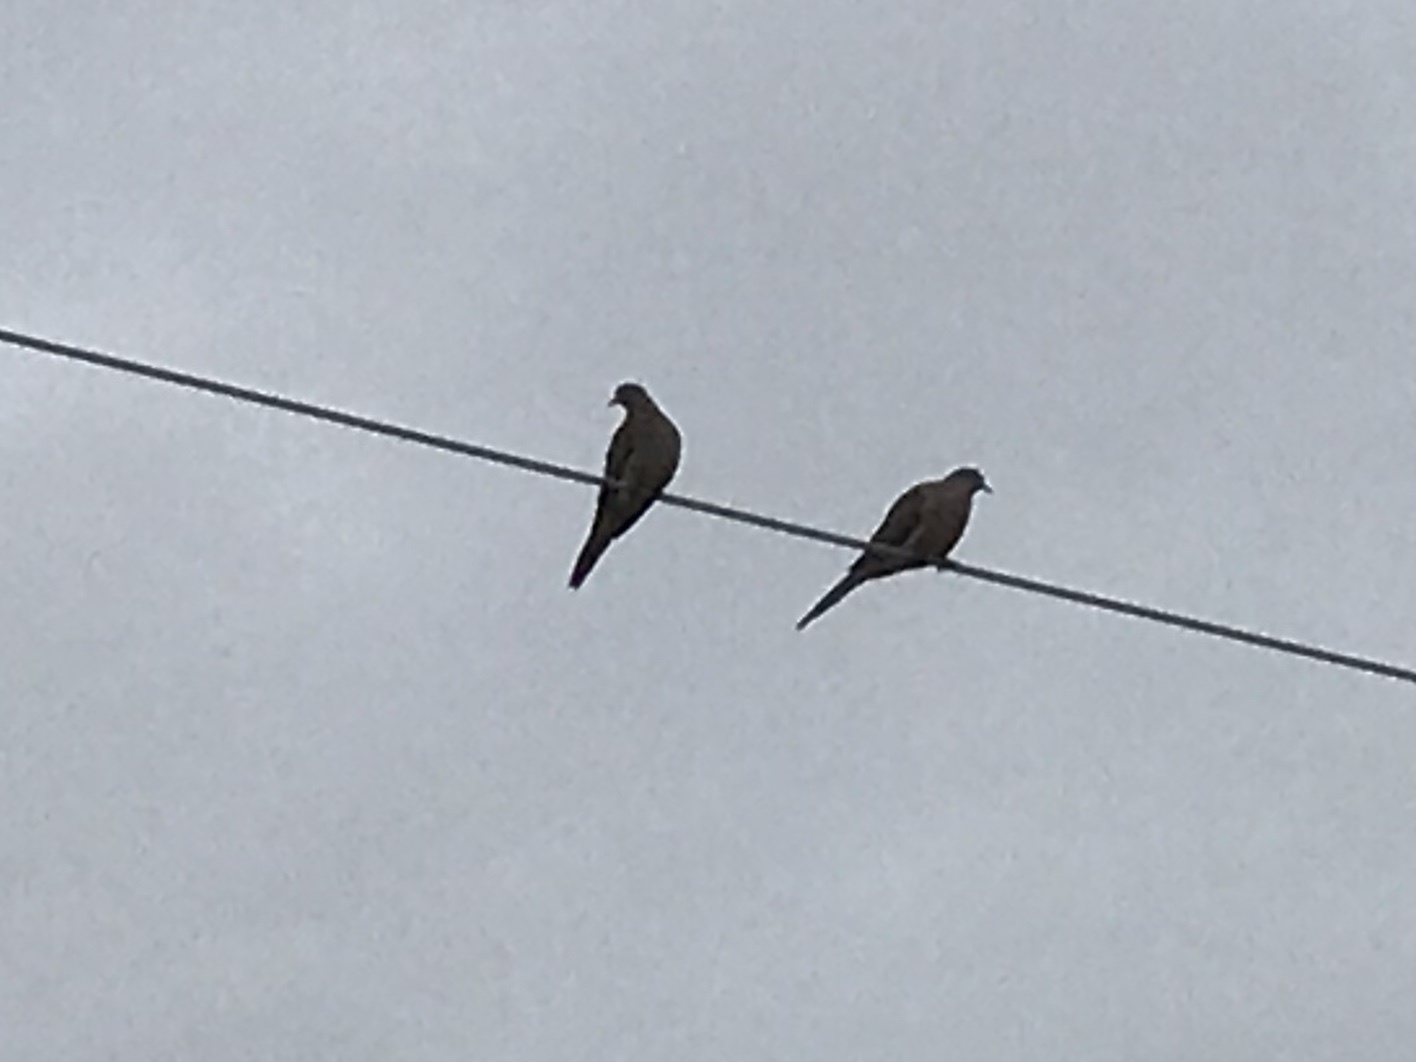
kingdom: Animalia
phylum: Chordata
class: Aves
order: Columbiformes
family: Columbidae
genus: Zenaida
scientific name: Zenaida macroura
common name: Mourning dove
